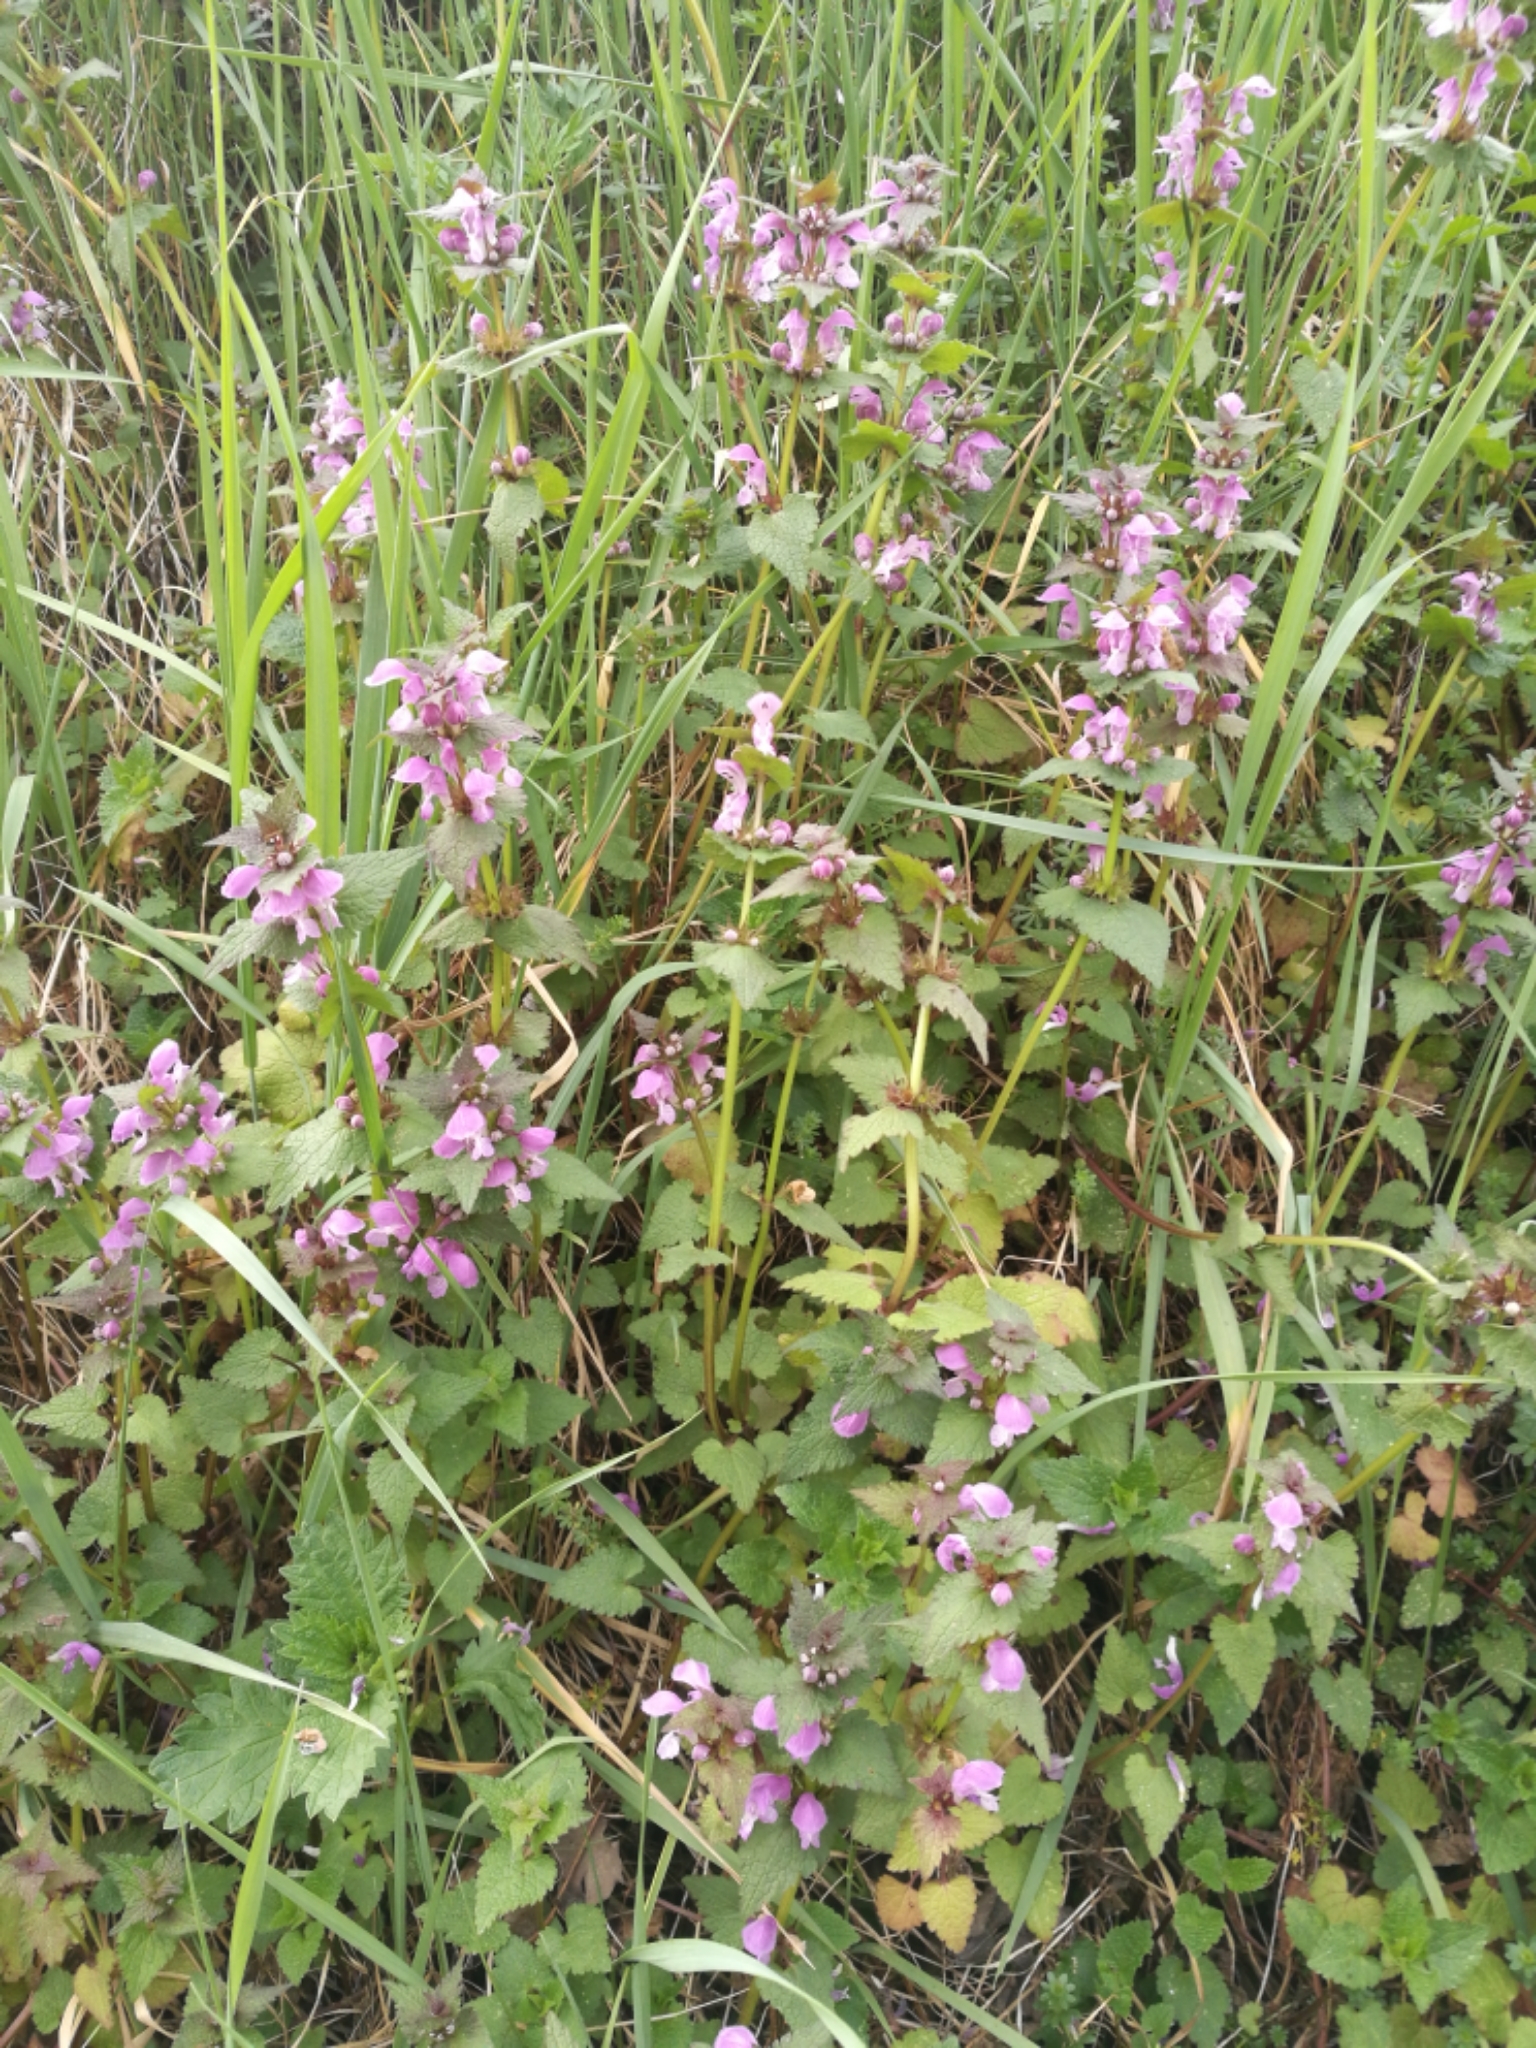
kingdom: Plantae
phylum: Tracheophyta
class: Magnoliopsida
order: Lamiales
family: Lamiaceae
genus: Lamium
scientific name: Lamium purpureum
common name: Red dead-nettle
